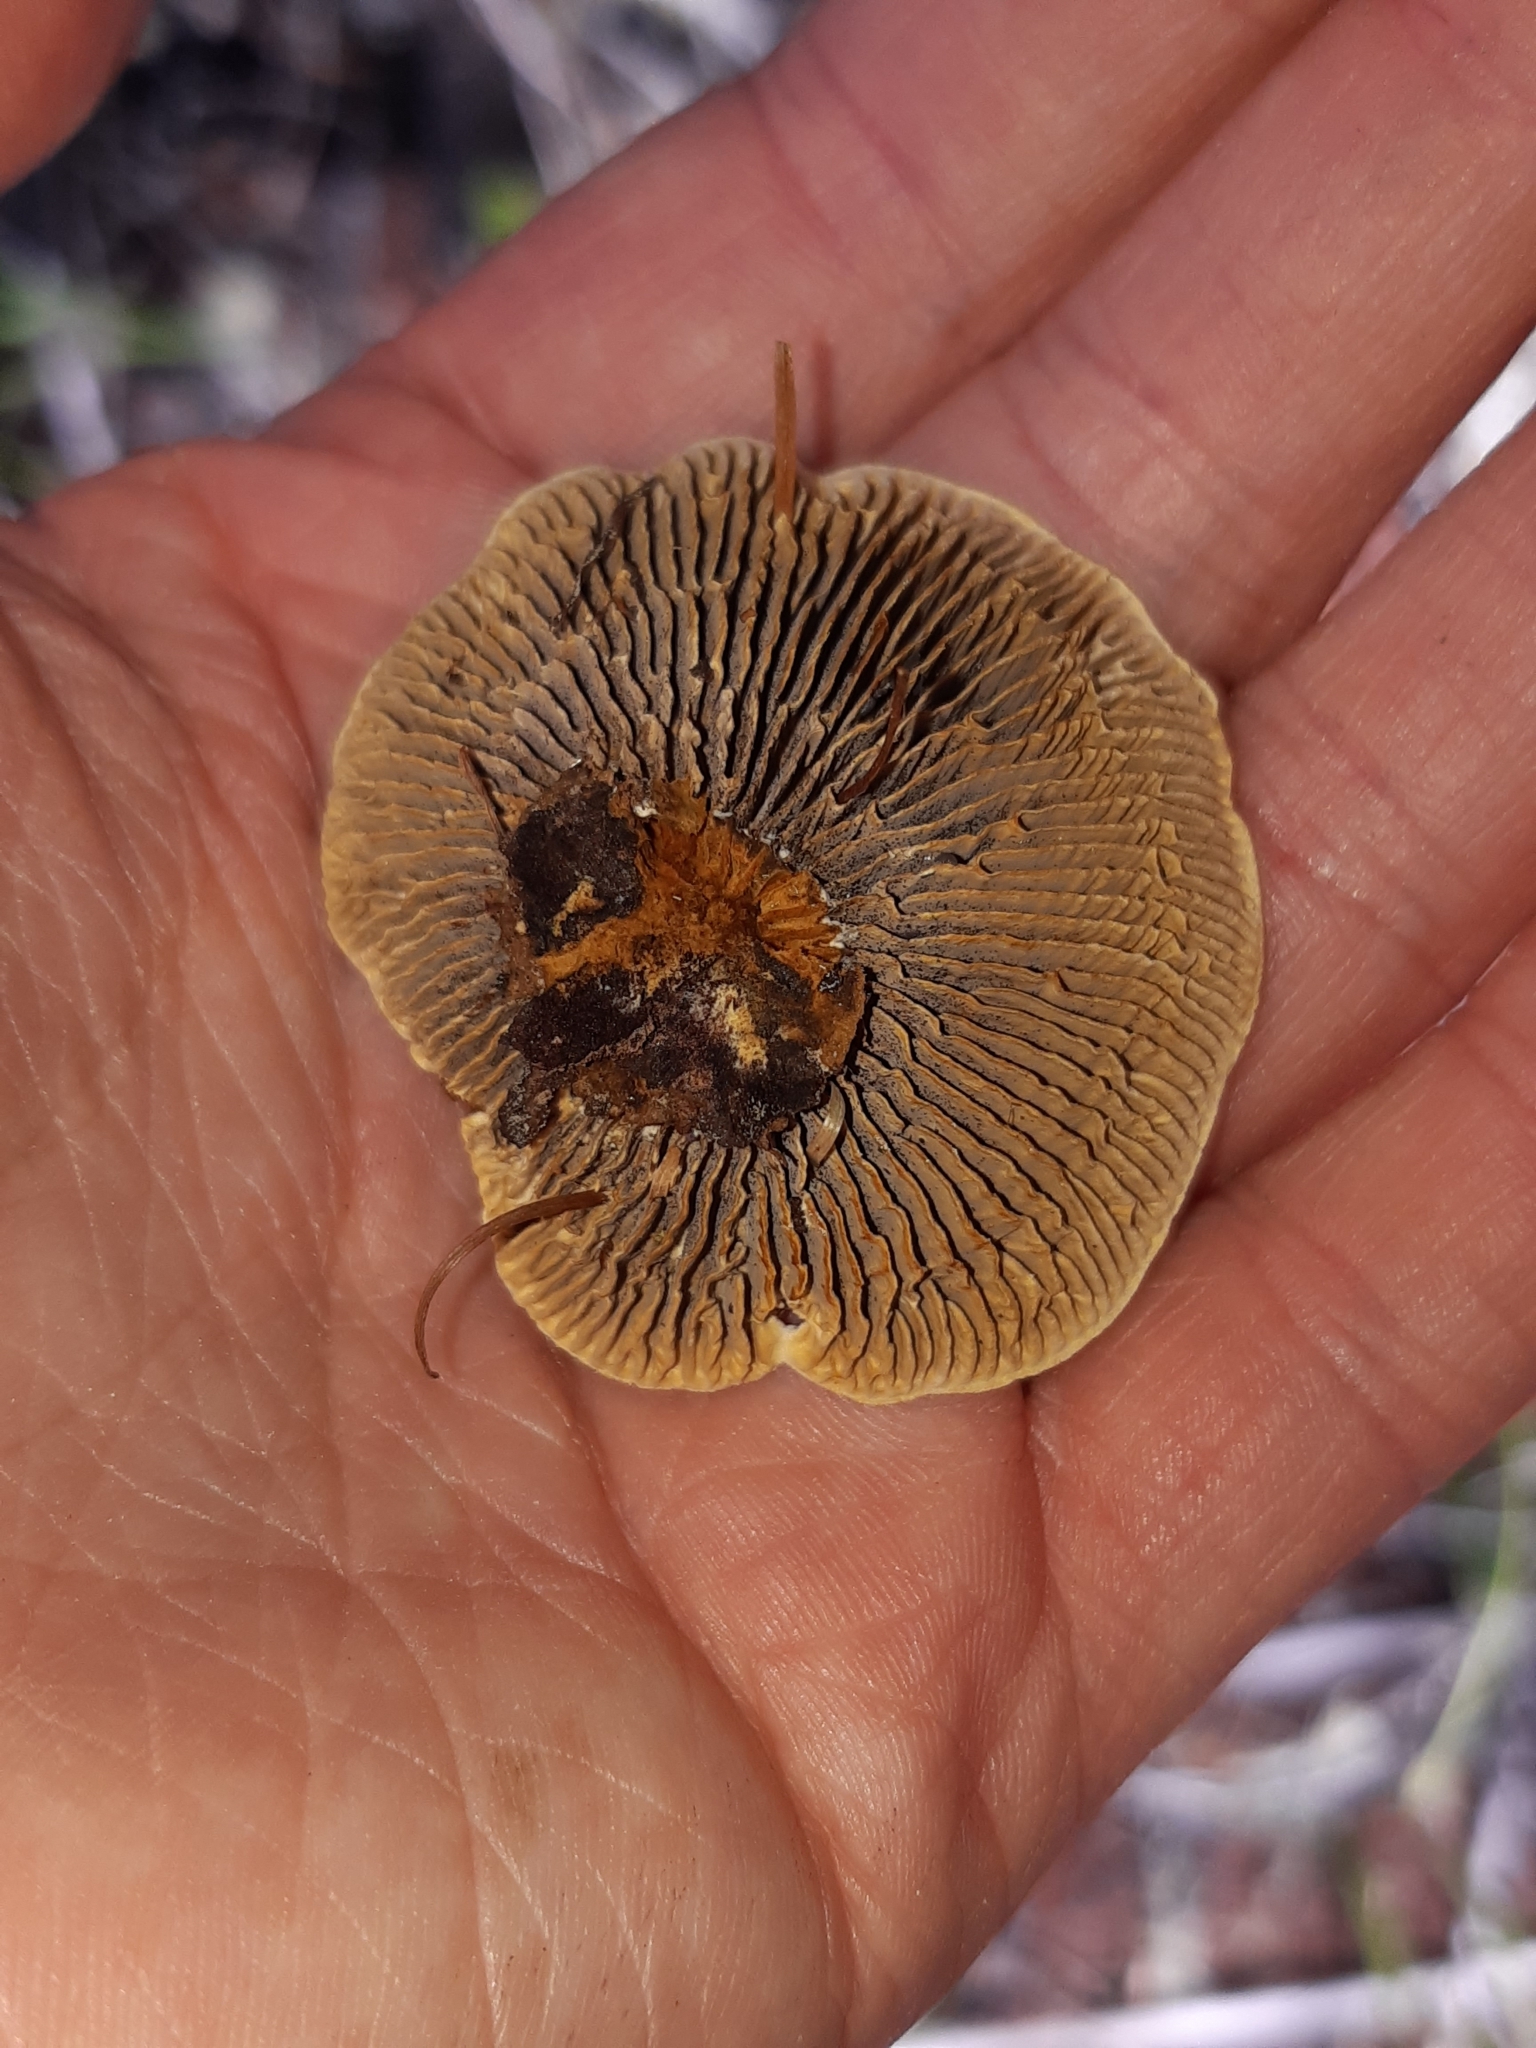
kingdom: Fungi
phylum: Basidiomycota
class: Agaricomycetes
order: Gloeophyllales
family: Gloeophyllaceae
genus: Gloeophyllum
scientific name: Gloeophyllum sepiarium
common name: Conifer mazegill
